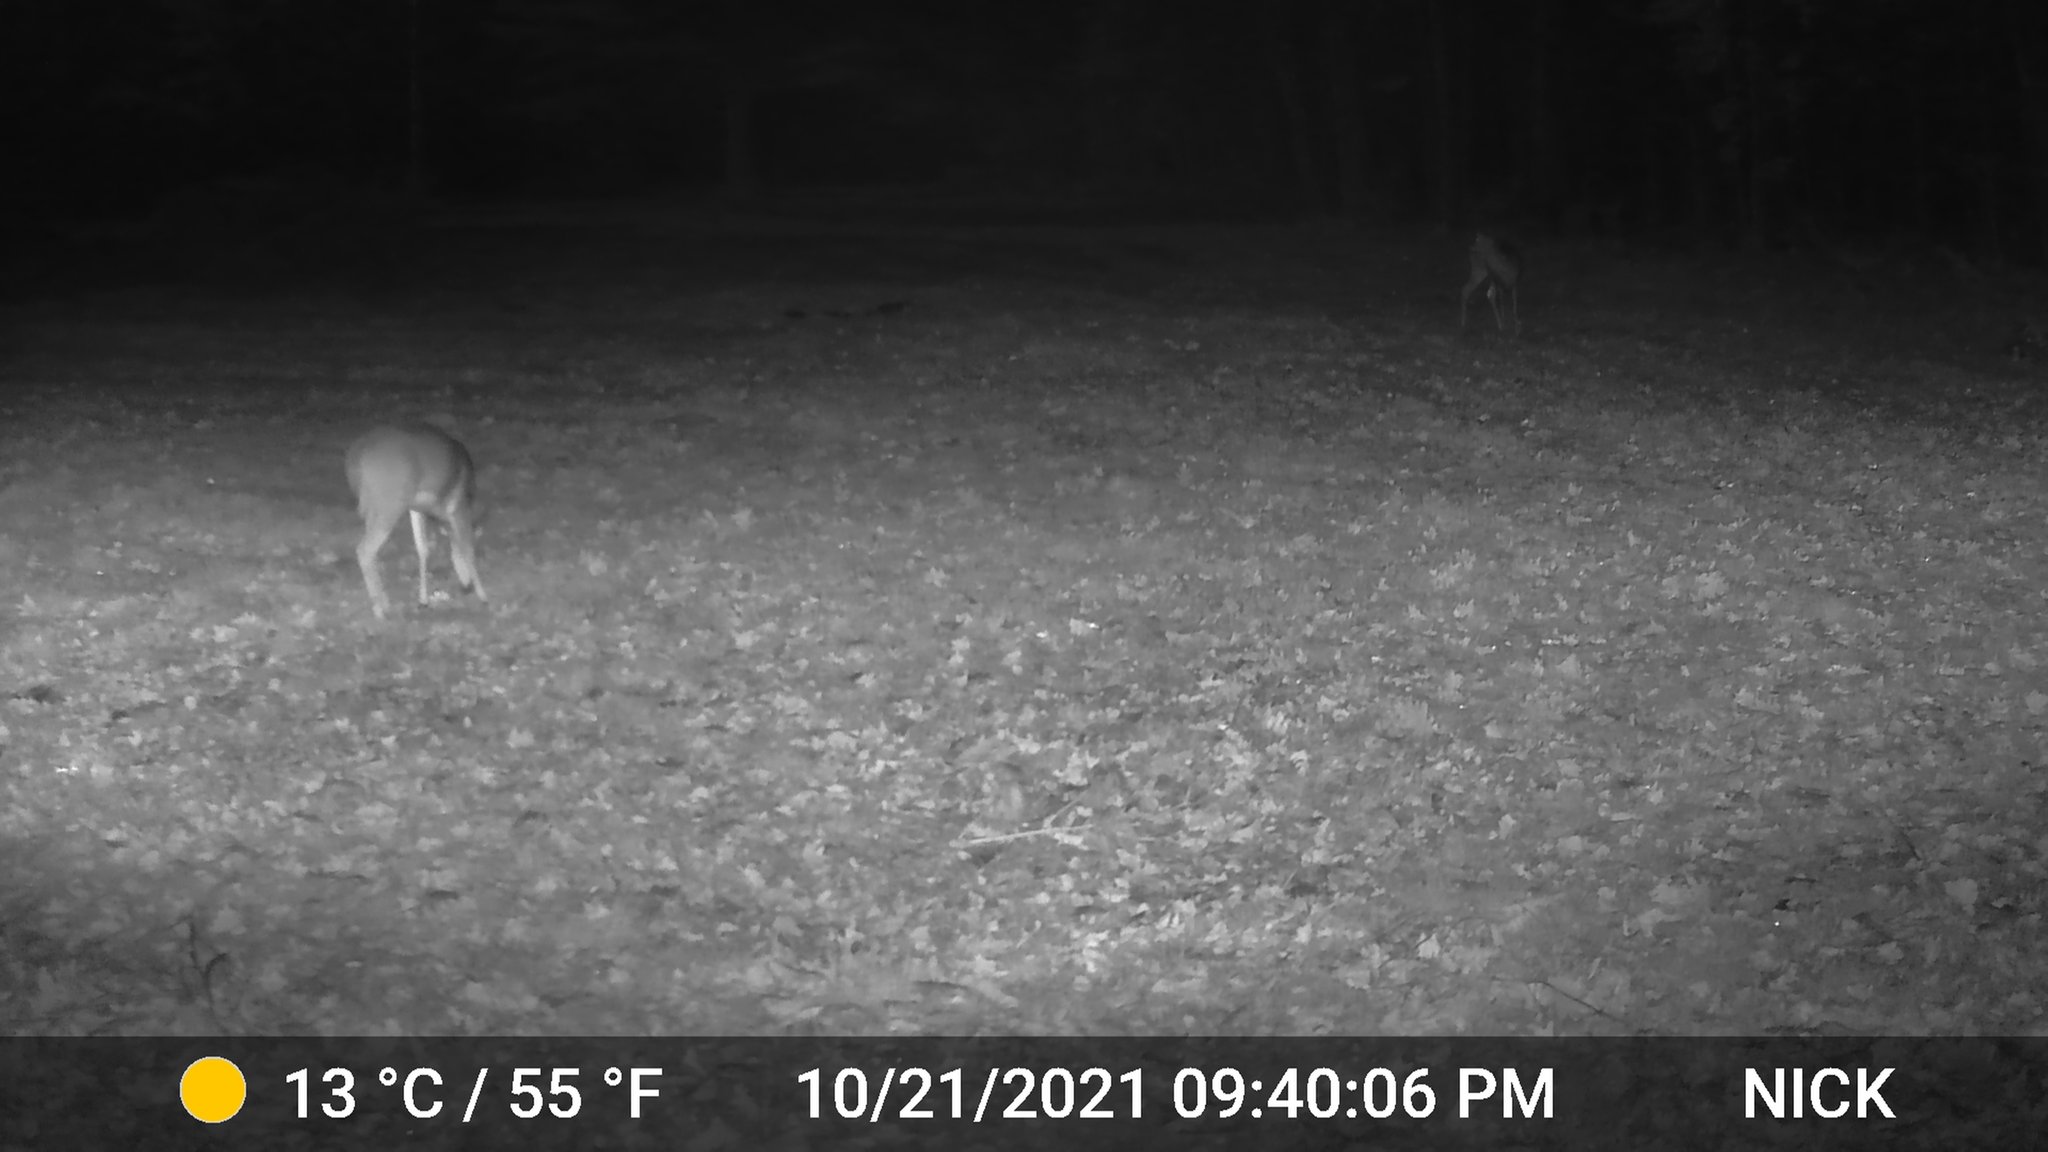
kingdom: Animalia
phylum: Chordata
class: Mammalia
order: Artiodactyla
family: Cervidae
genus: Odocoileus
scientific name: Odocoileus virginianus
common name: White-tailed deer
